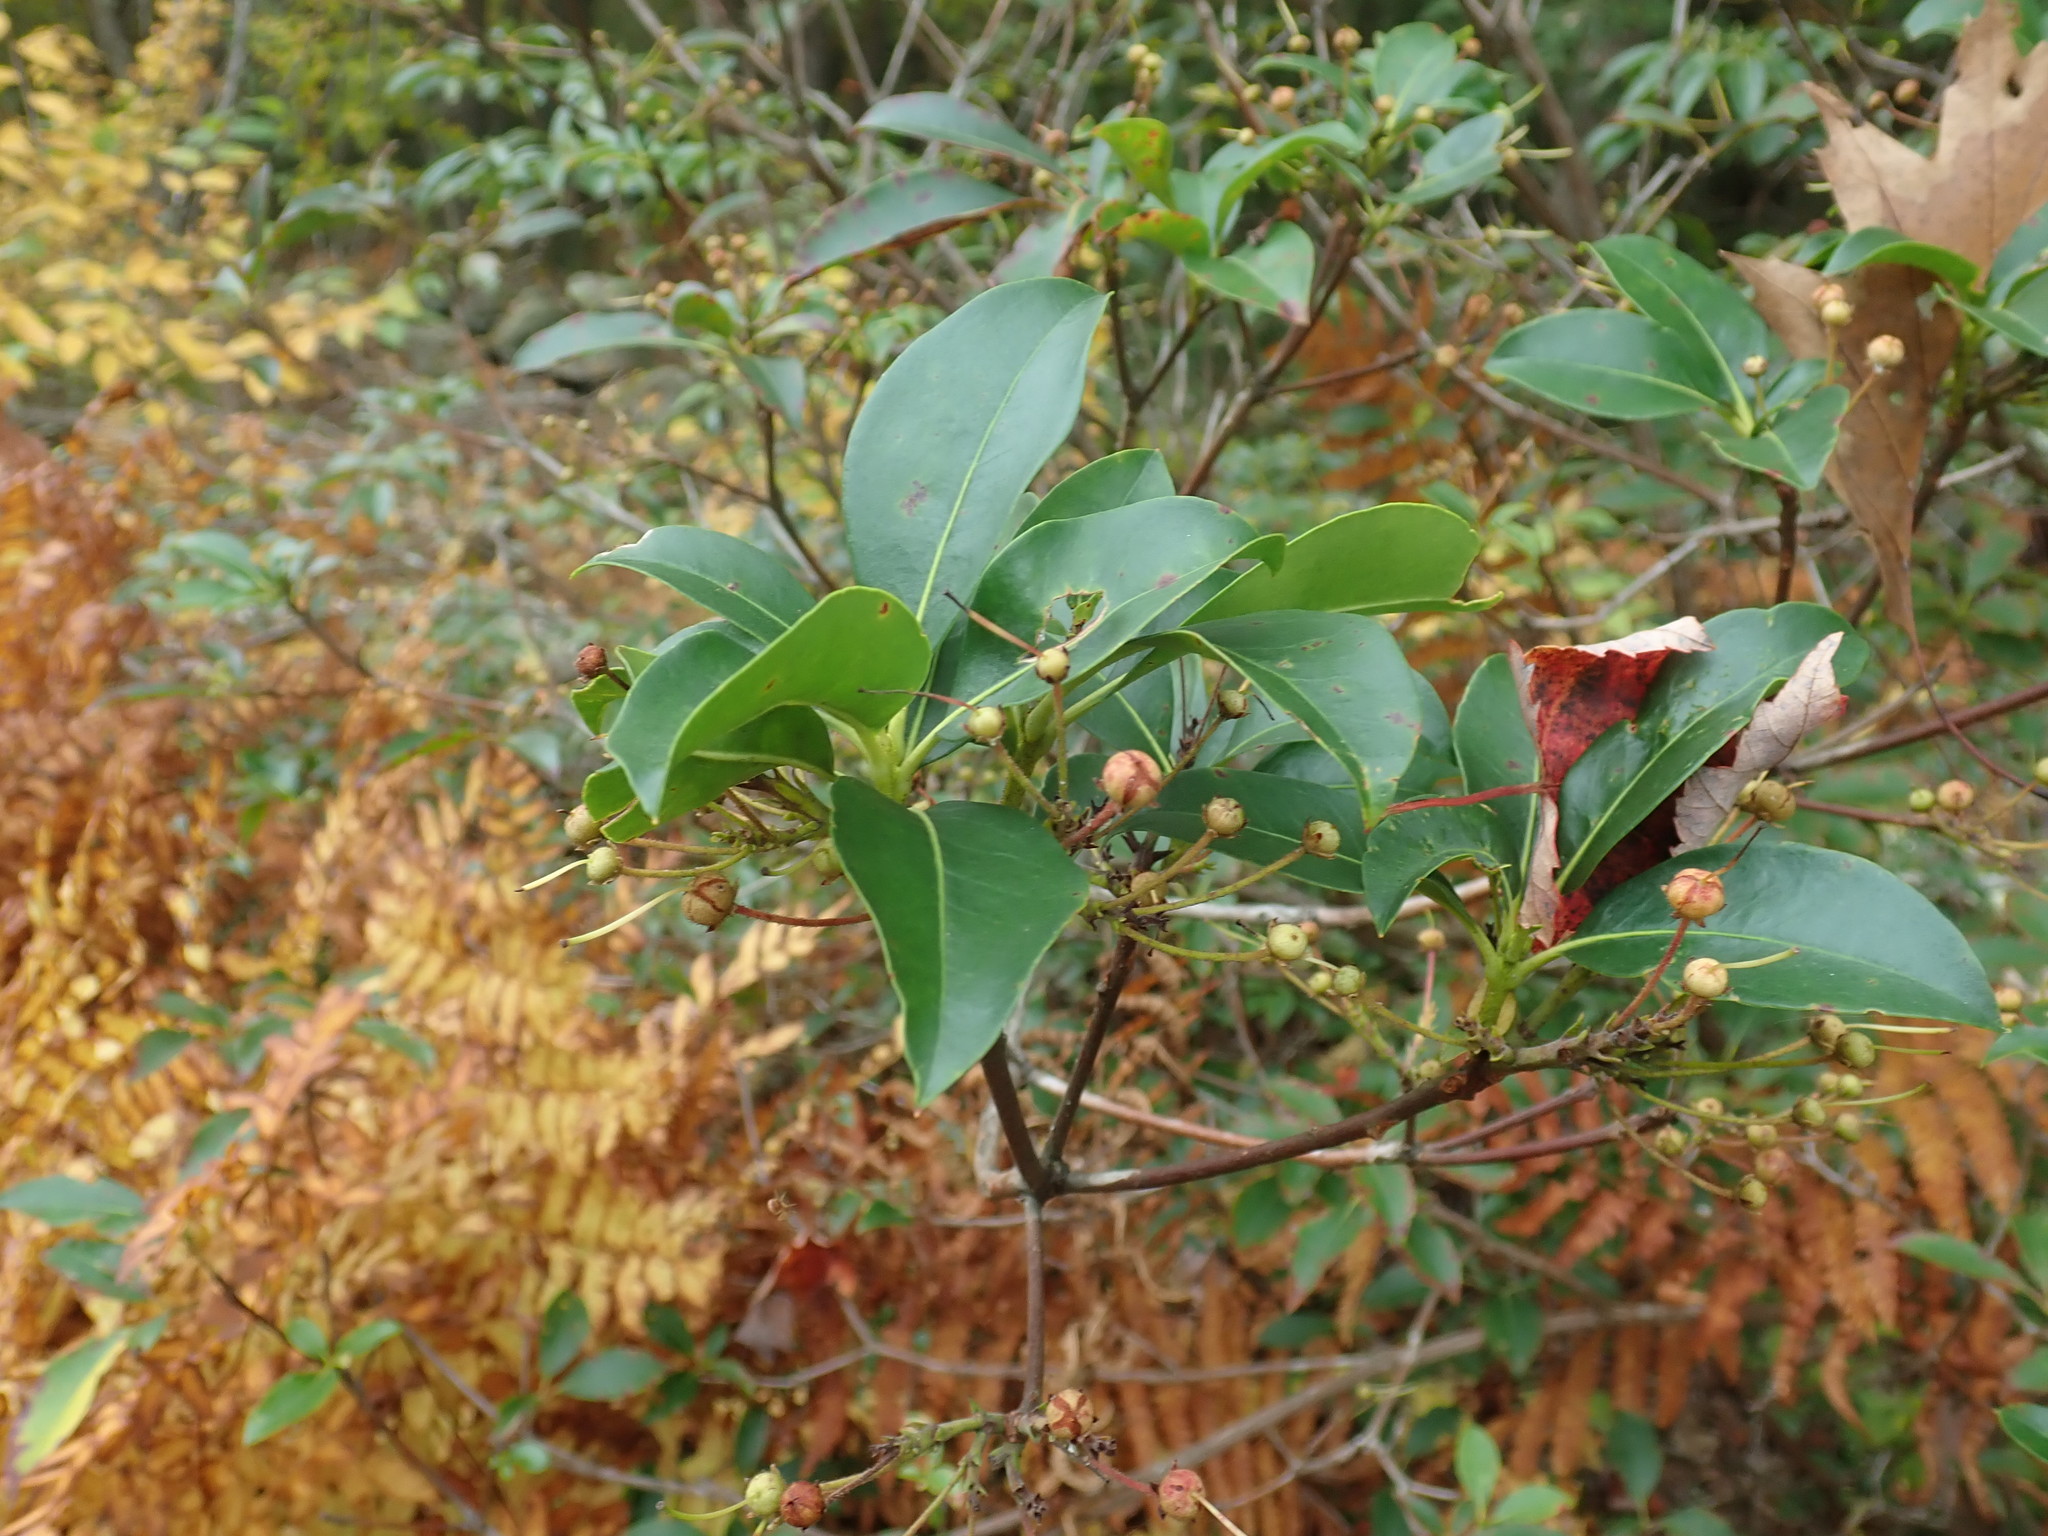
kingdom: Plantae
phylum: Tracheophyta
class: Magnoliopsida
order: Ericales
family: Ericaceae
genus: Kalmia
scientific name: Kalmia latifolia
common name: Mountain-laurel
